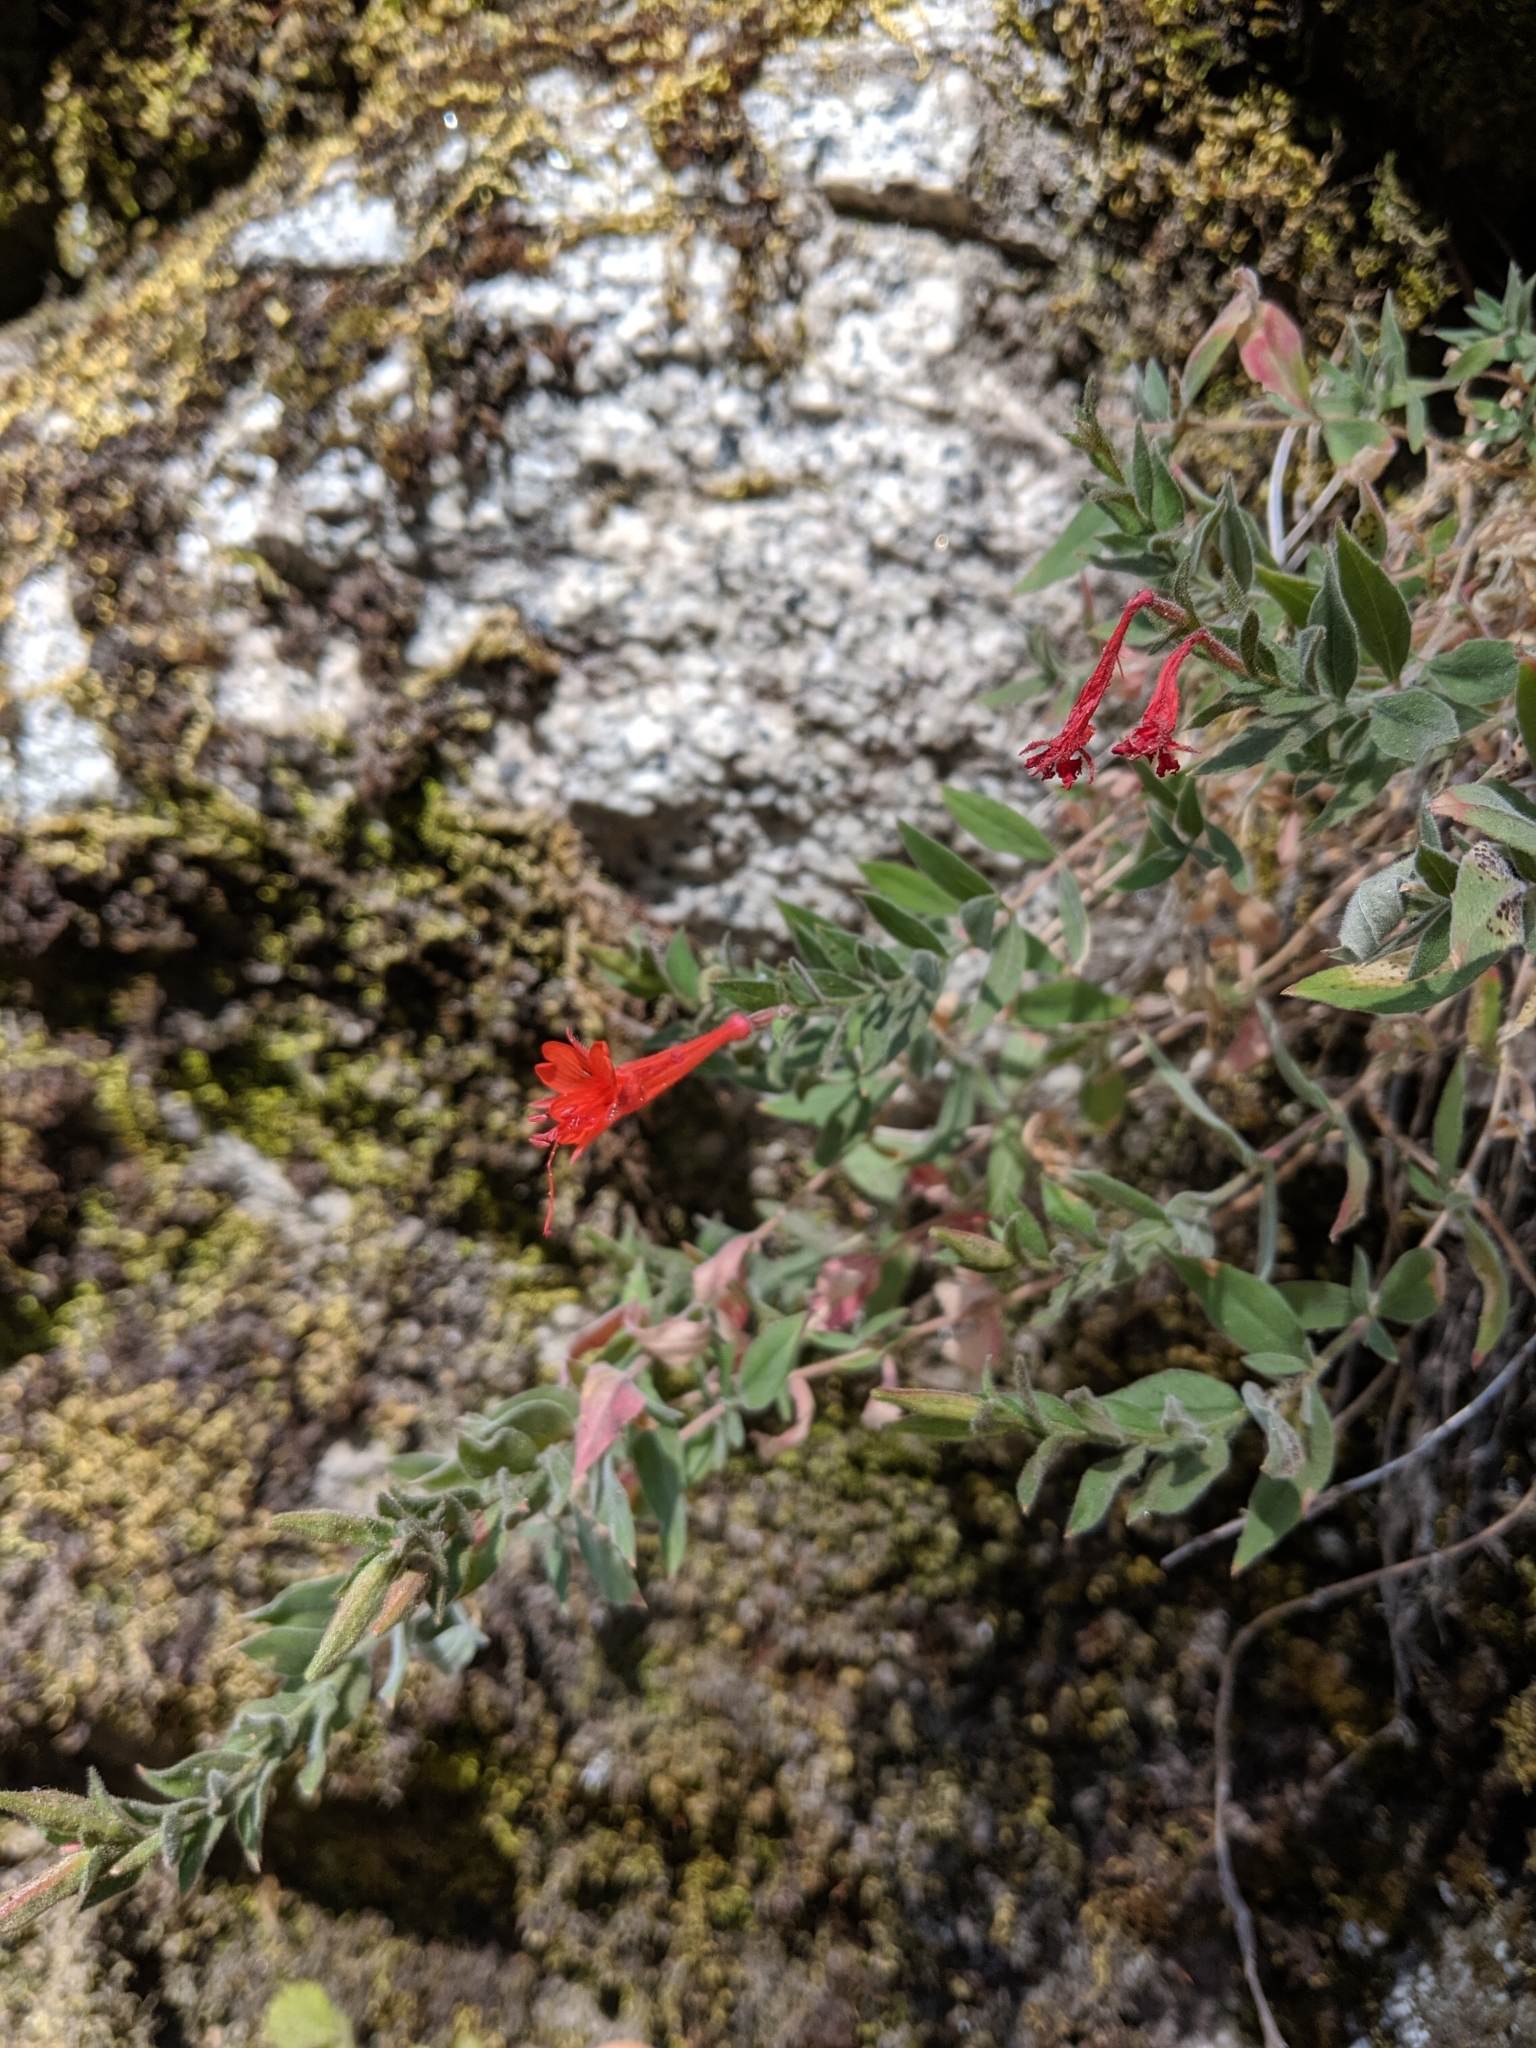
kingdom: Plantae
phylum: Tracheophyta
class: Magnoliopsida
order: Myrtales
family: Onagraceae
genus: Epilobium
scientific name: Epilobium canum
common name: California-fuchsia
